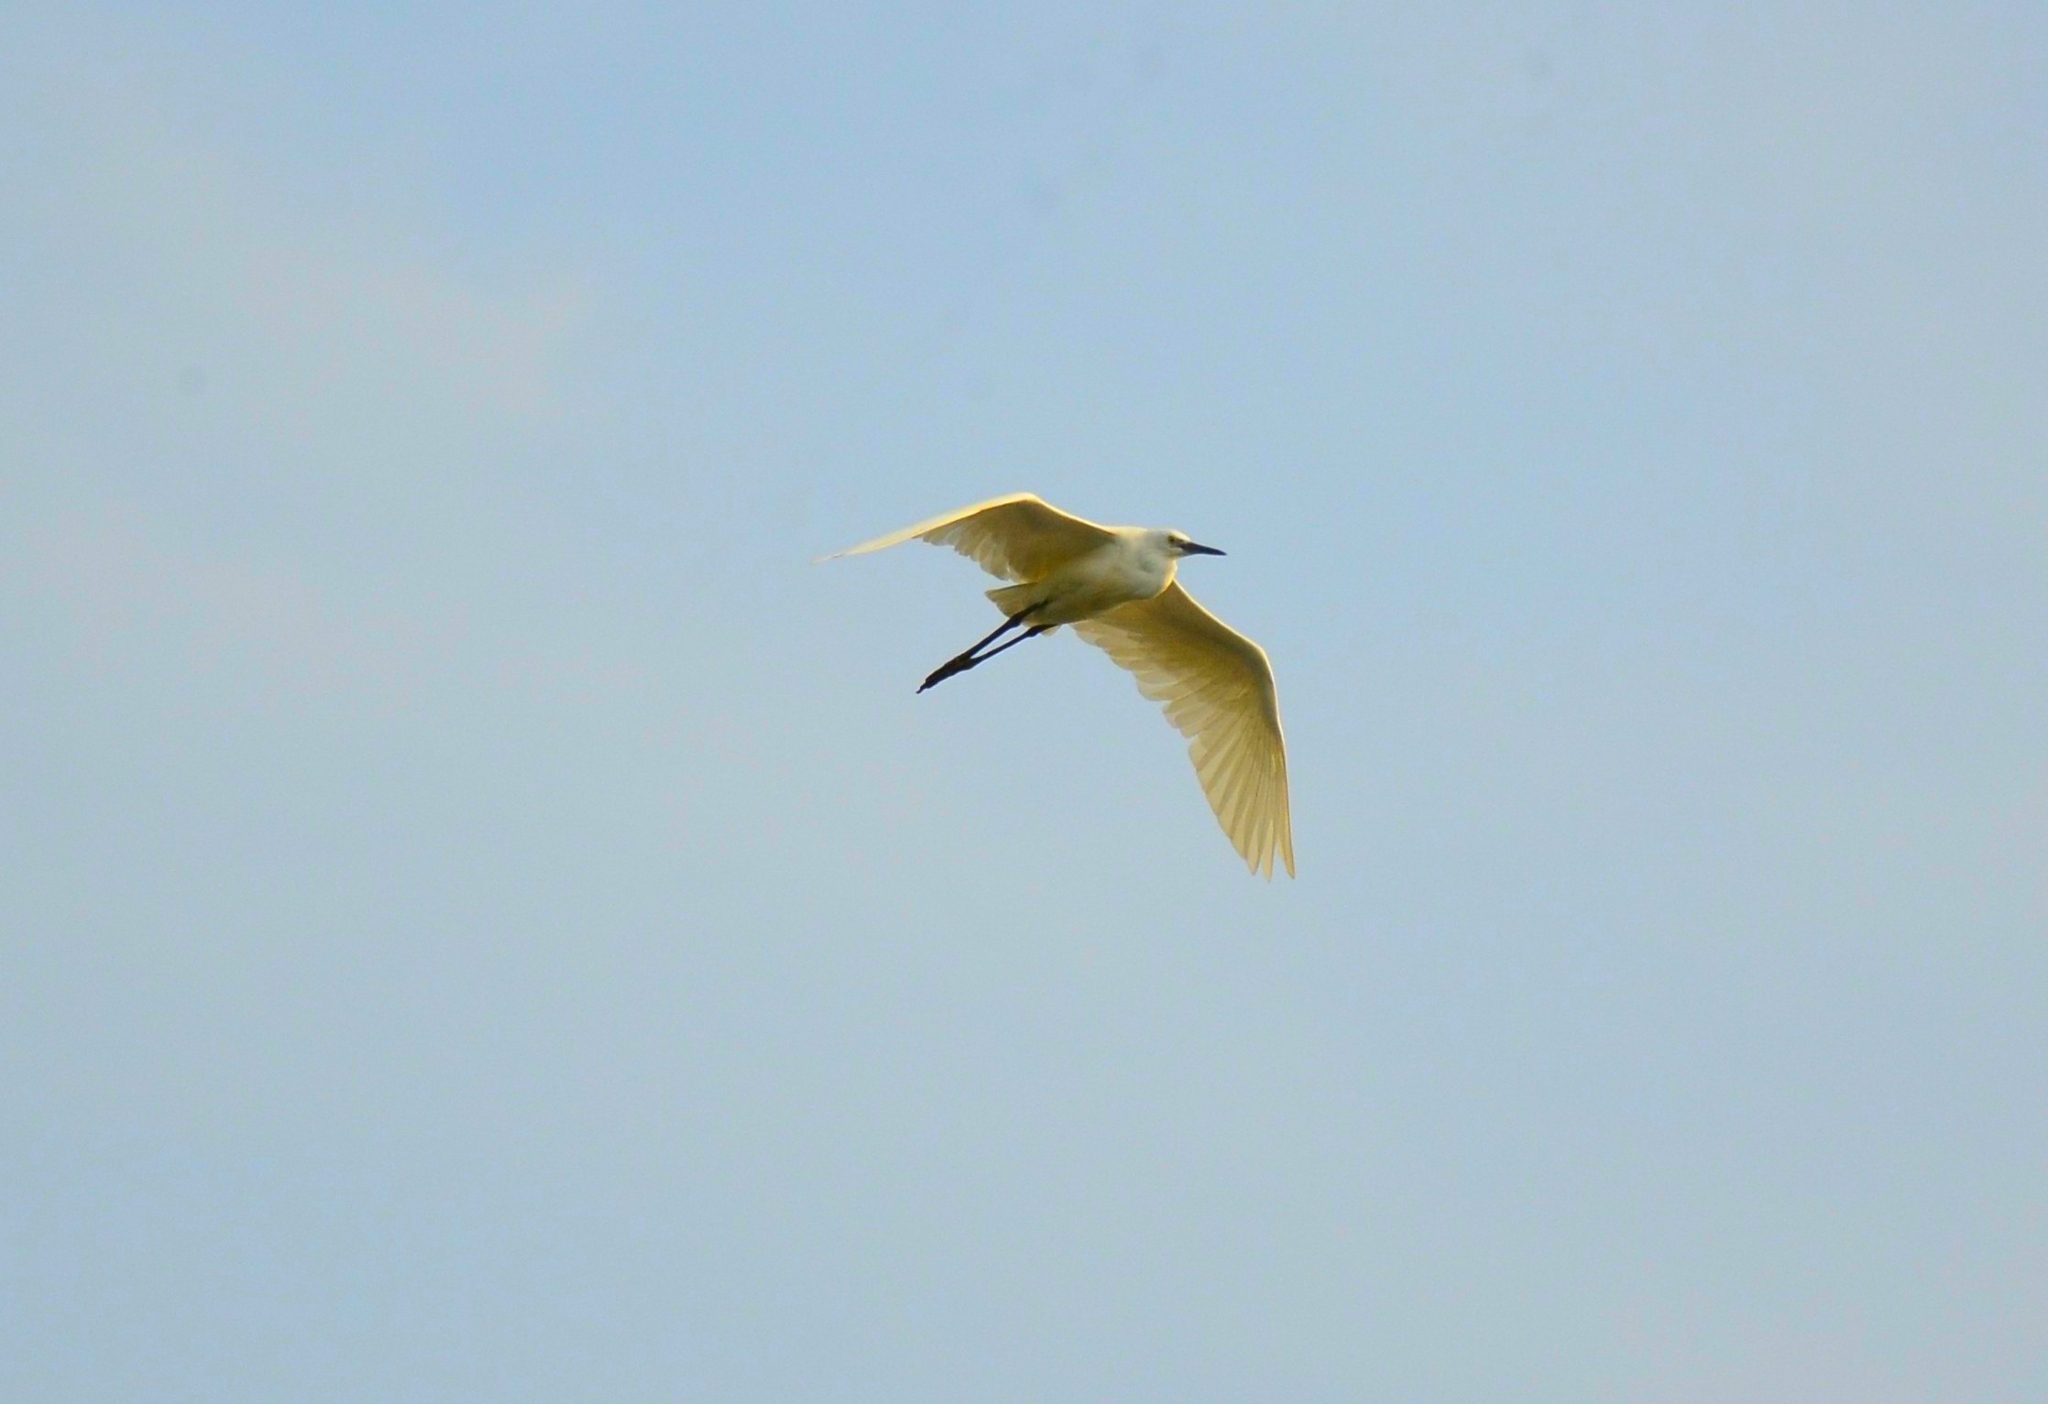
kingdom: Animalia
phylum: Chordata
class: Aves
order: Pelecaniformes
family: Ardeidae
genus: Egretta
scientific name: Egretta garzetta
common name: Little egret
